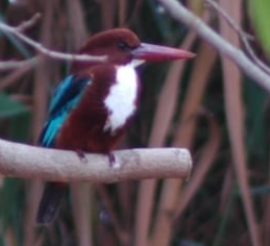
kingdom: Animalia
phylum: Chordata
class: Aves
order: Coraciiformes
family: Alcedinidae
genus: Halcyon
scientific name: Halcyon smyrnensis
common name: White-throated kingfisher
